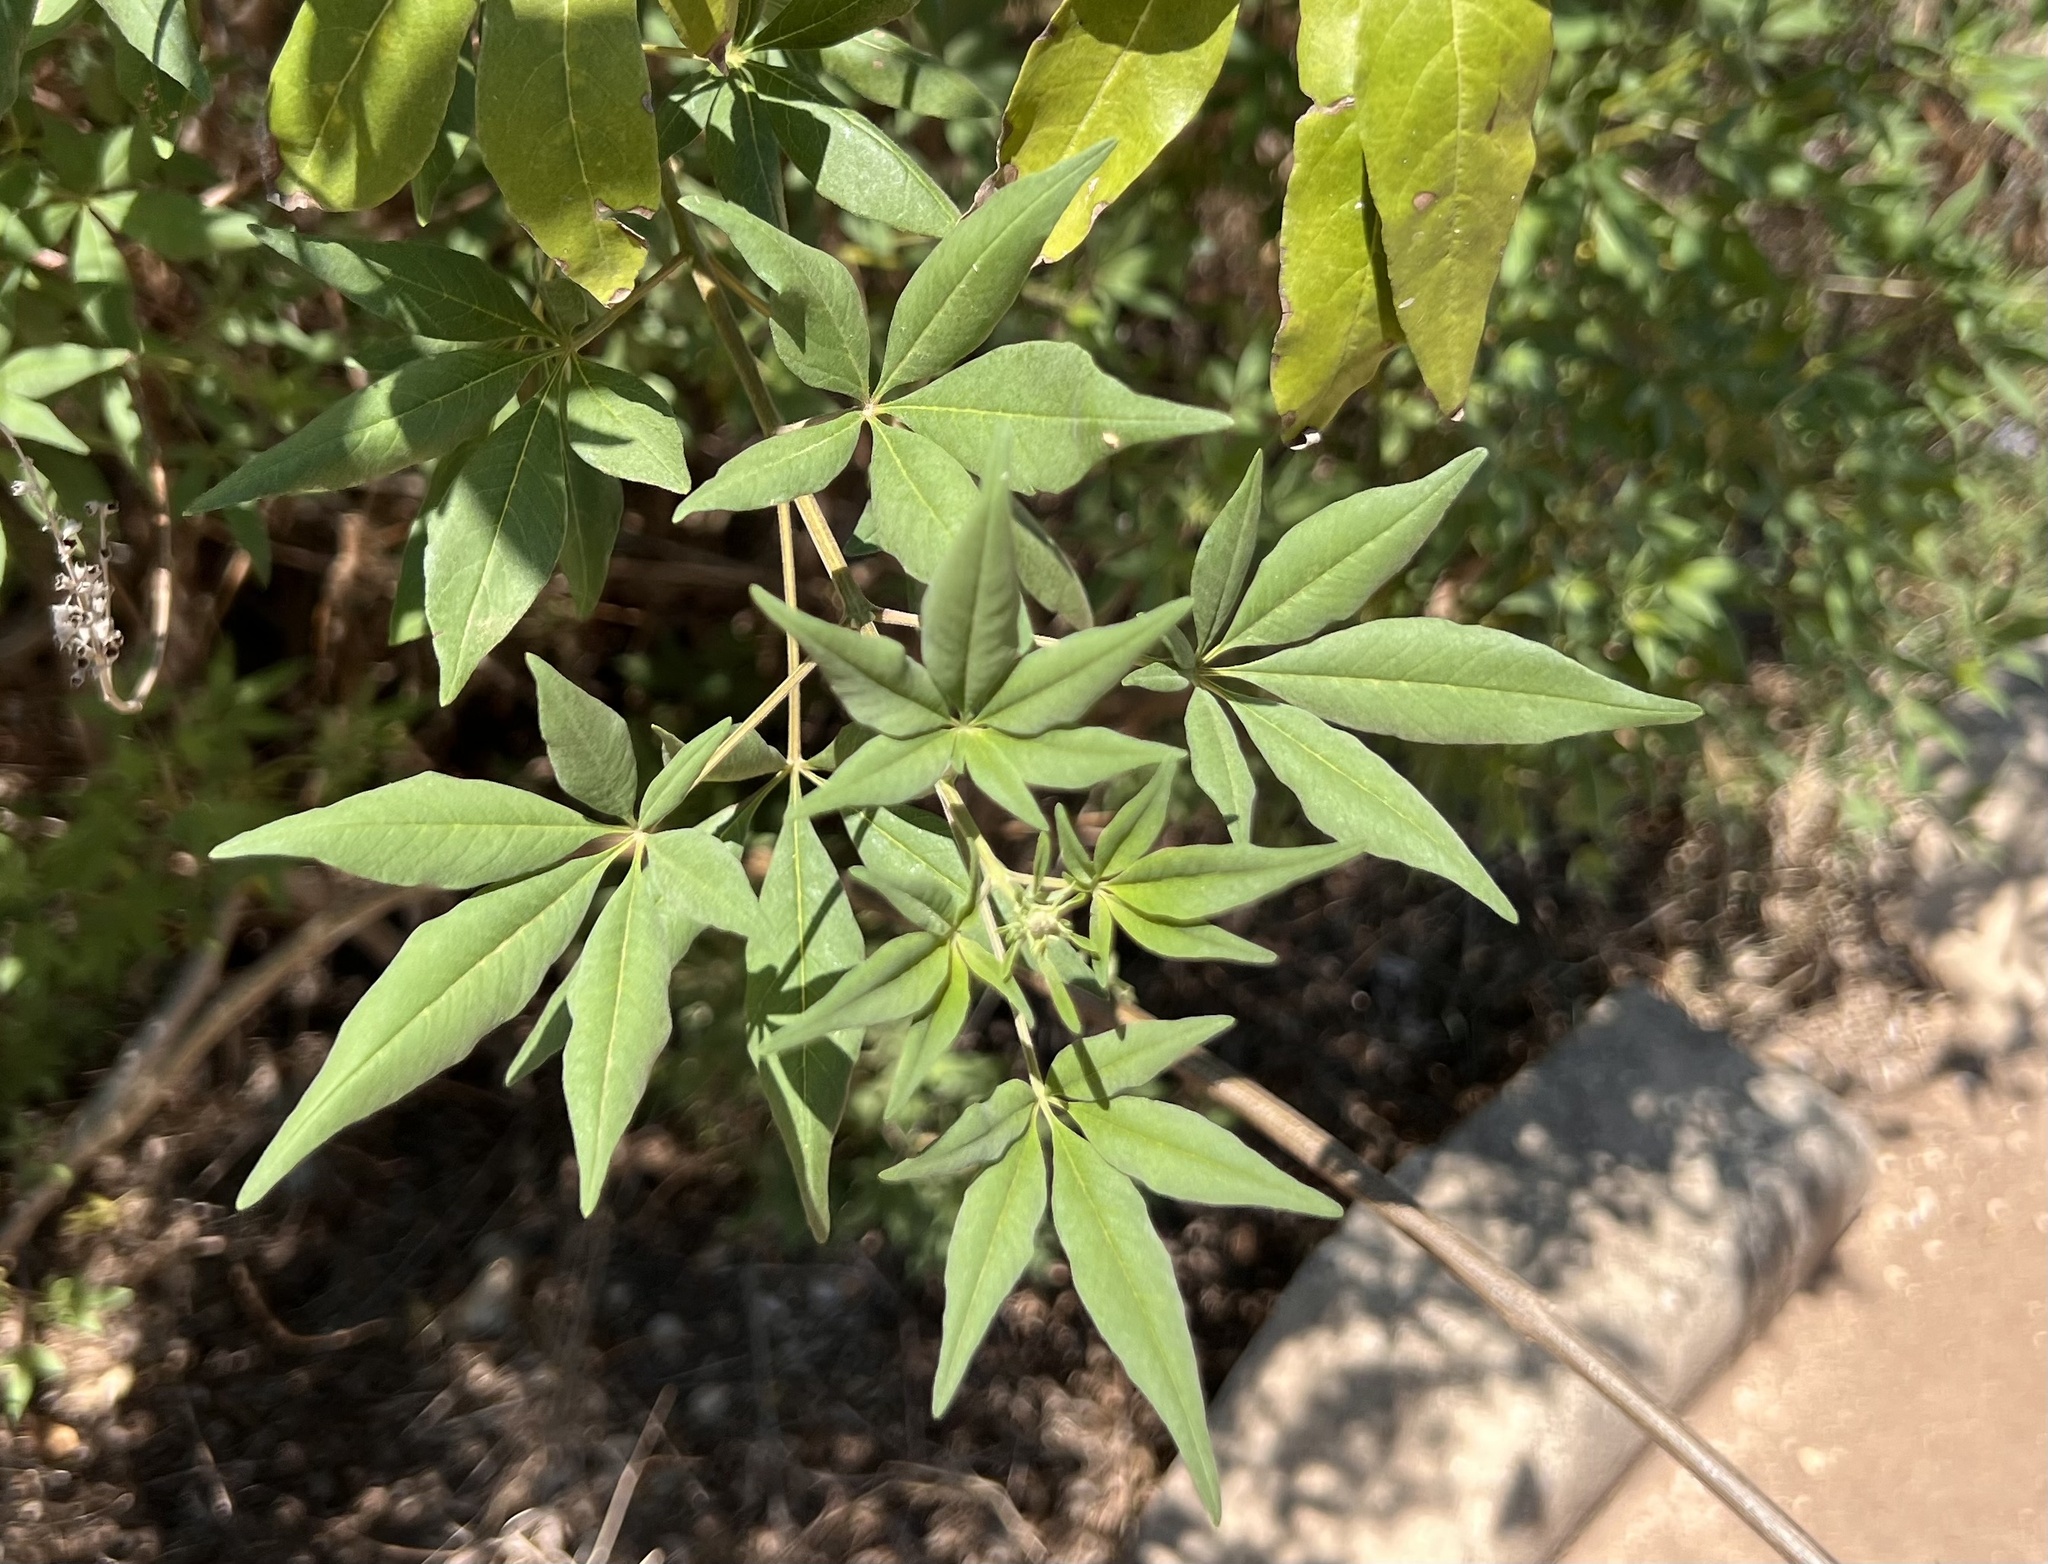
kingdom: Plantae
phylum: Tracheophyta
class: Magnoliopsida
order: Lamiales
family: Lamiaceae
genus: Vitex
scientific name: Vitex agnus-castus
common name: Chasteberry
